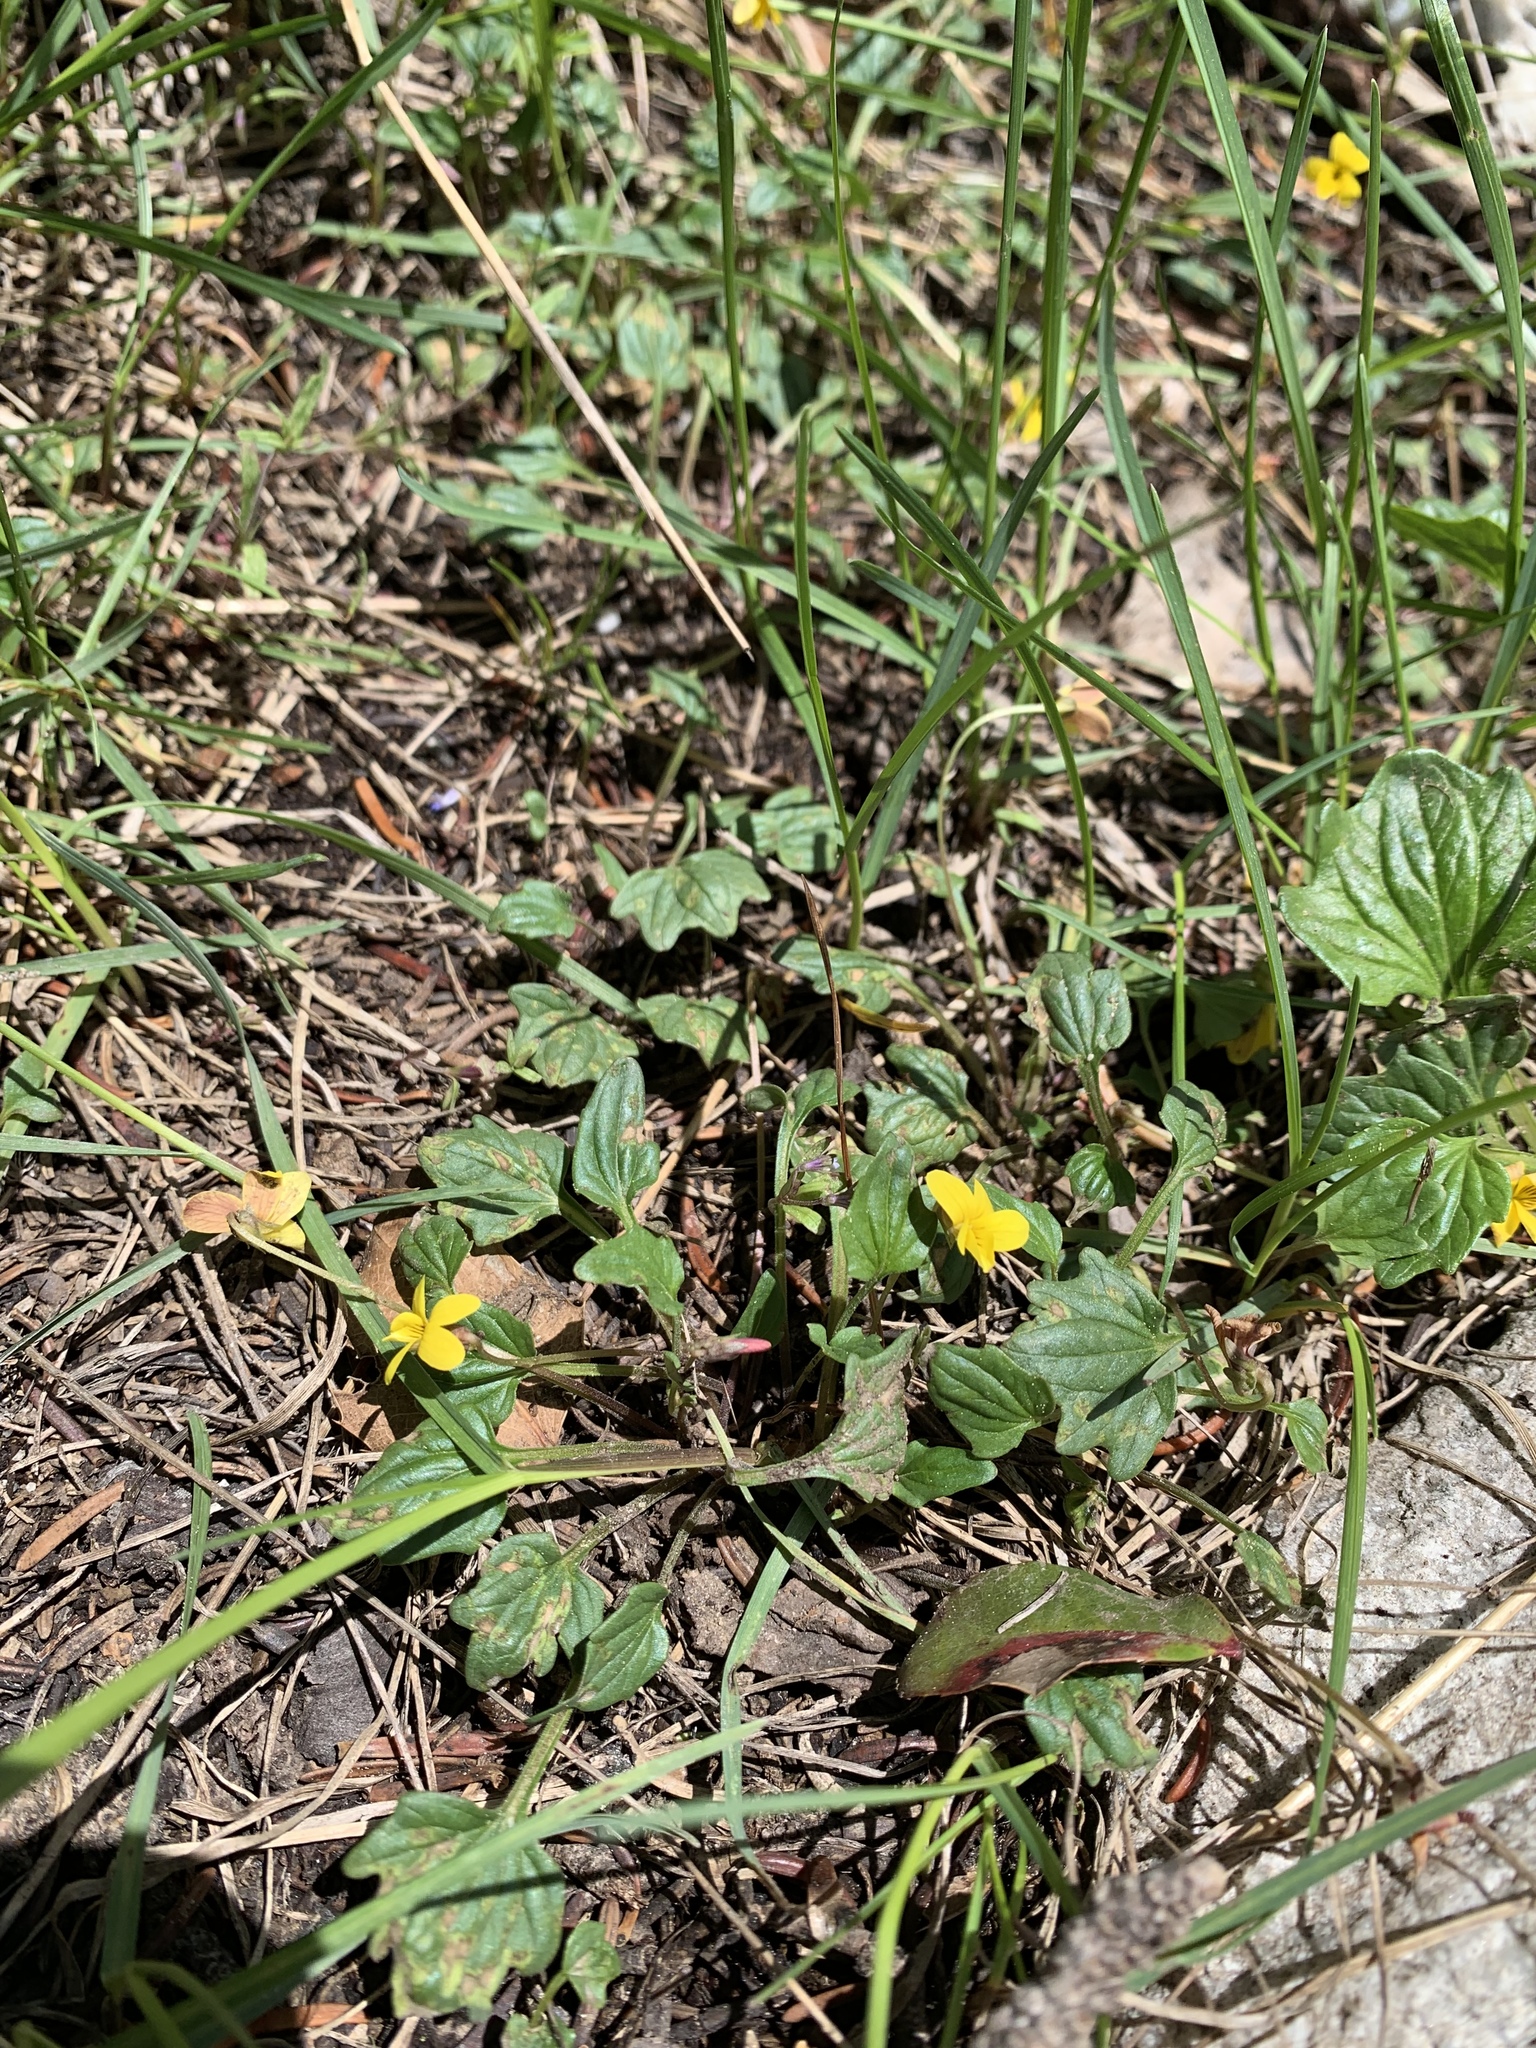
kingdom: Plantae
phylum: Tracheophyta
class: Magnoliopsida
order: Malpighiales
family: Violaceae
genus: Viola
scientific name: Viola purpurea
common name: Pine violet
